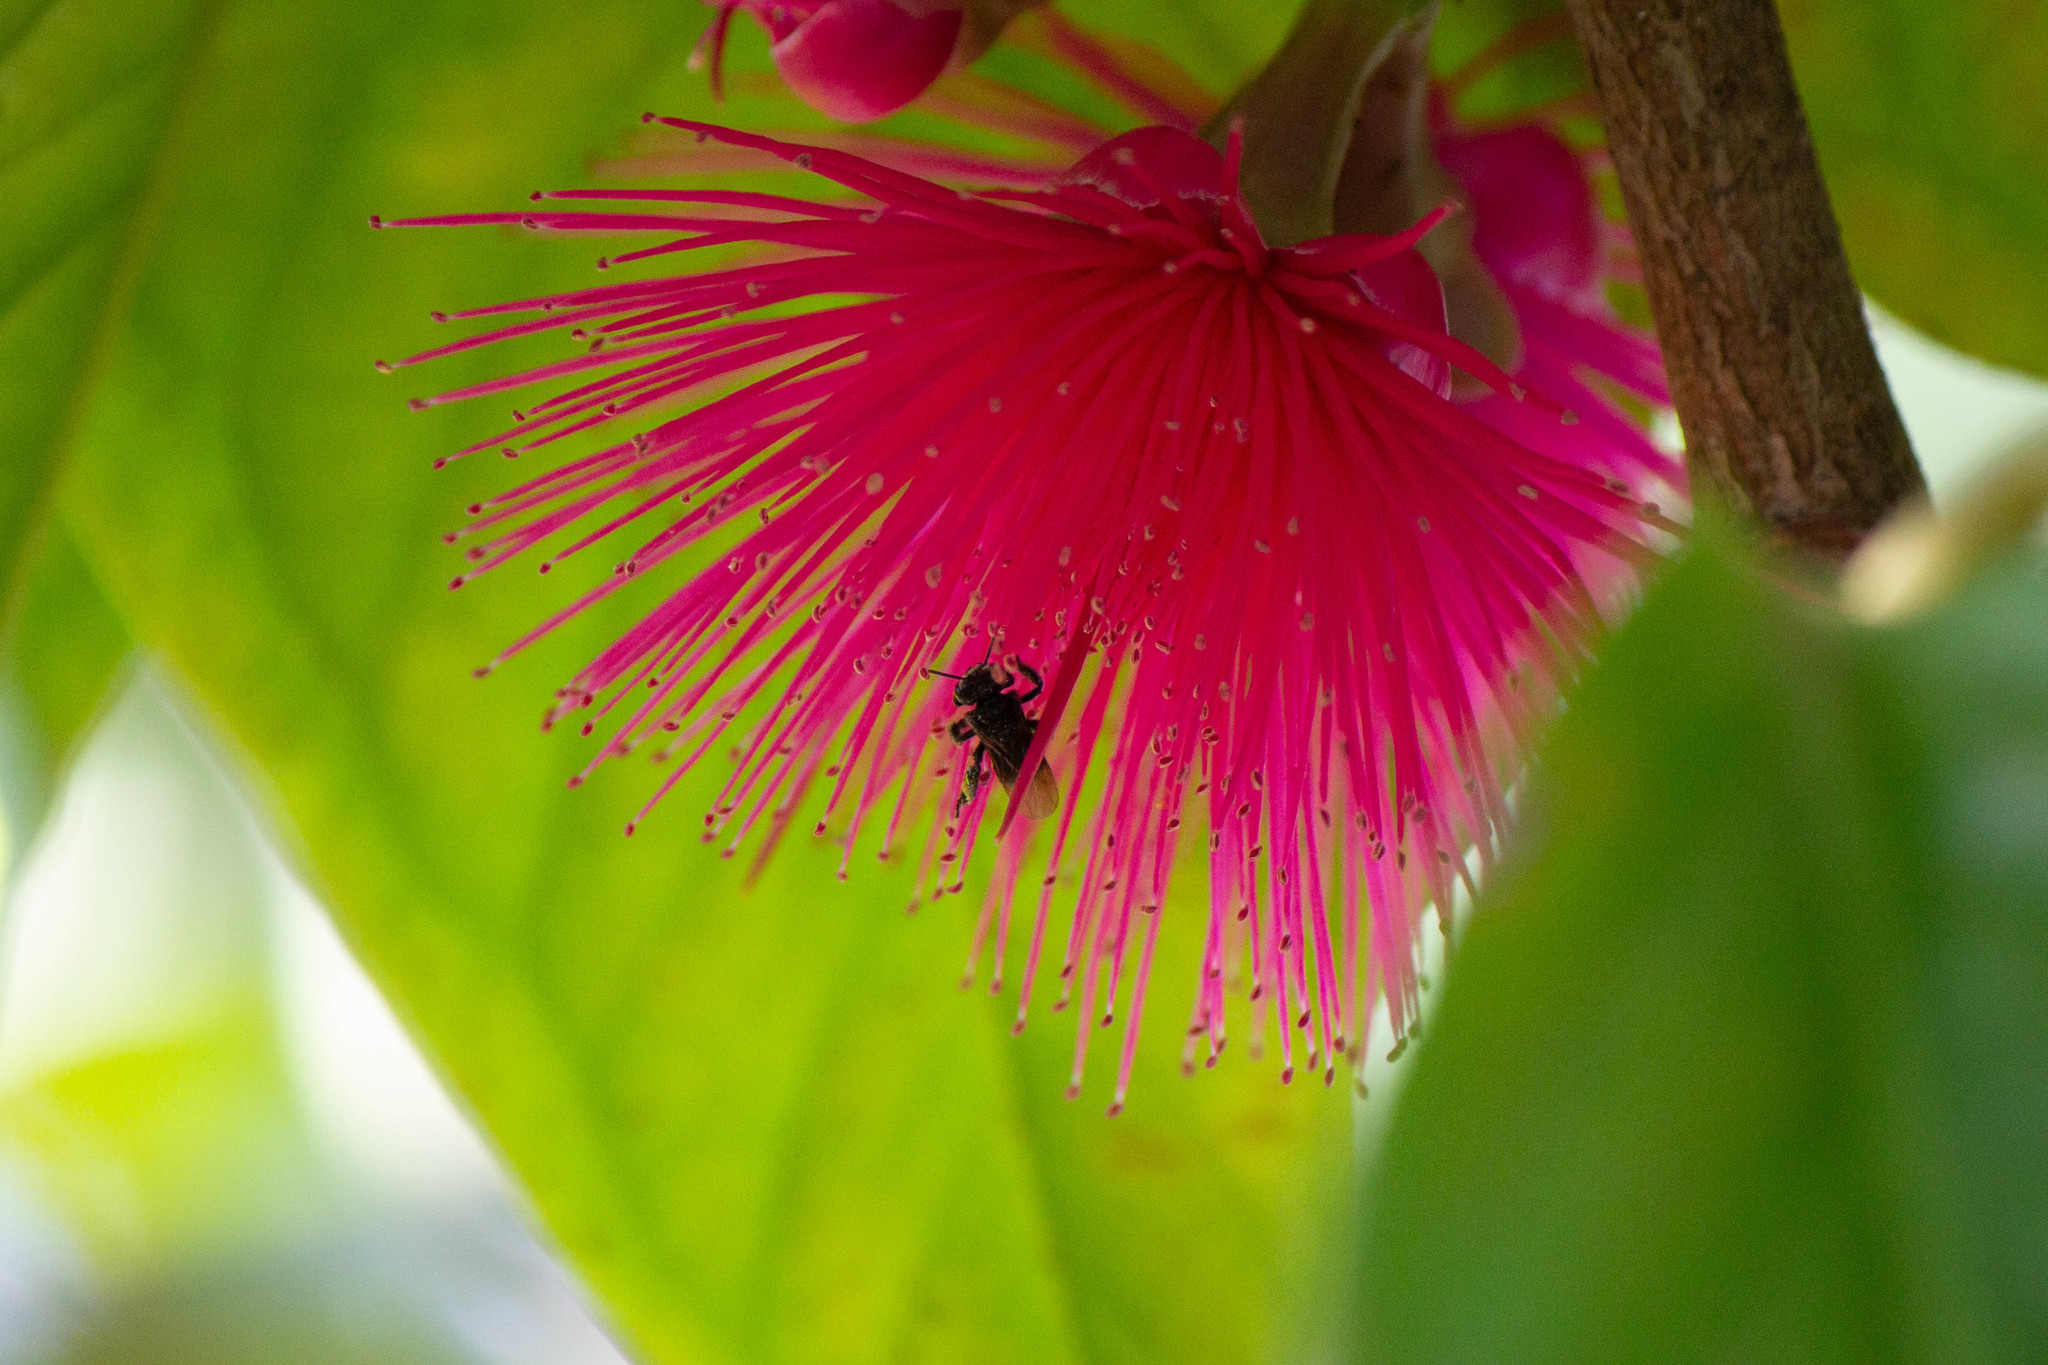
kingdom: Animalia
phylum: Arthropoda
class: Insecta
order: Hymenoptera
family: Apidae
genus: Trigona
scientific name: Trigona spinipes
